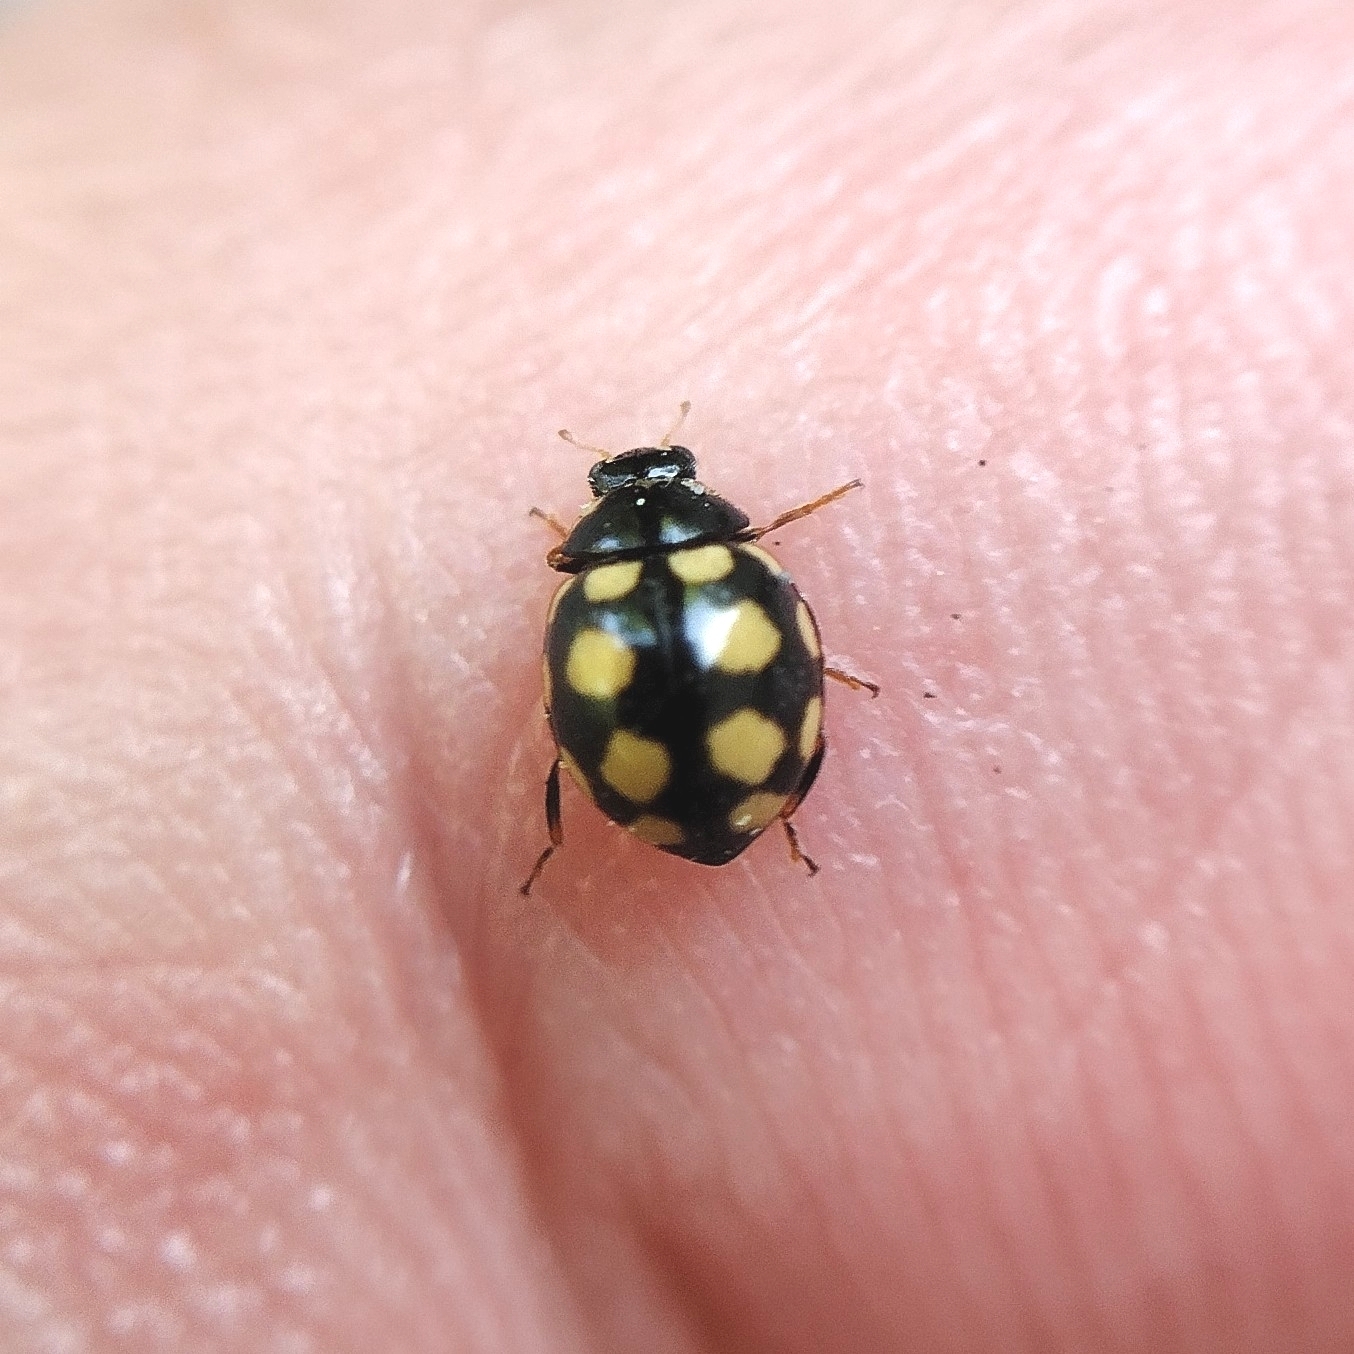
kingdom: Animalia
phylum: Arthropoda
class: Insecta
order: Coleoptera
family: Coccinellidae
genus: Coccinula
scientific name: Coccinula quatuordecimpustulata
